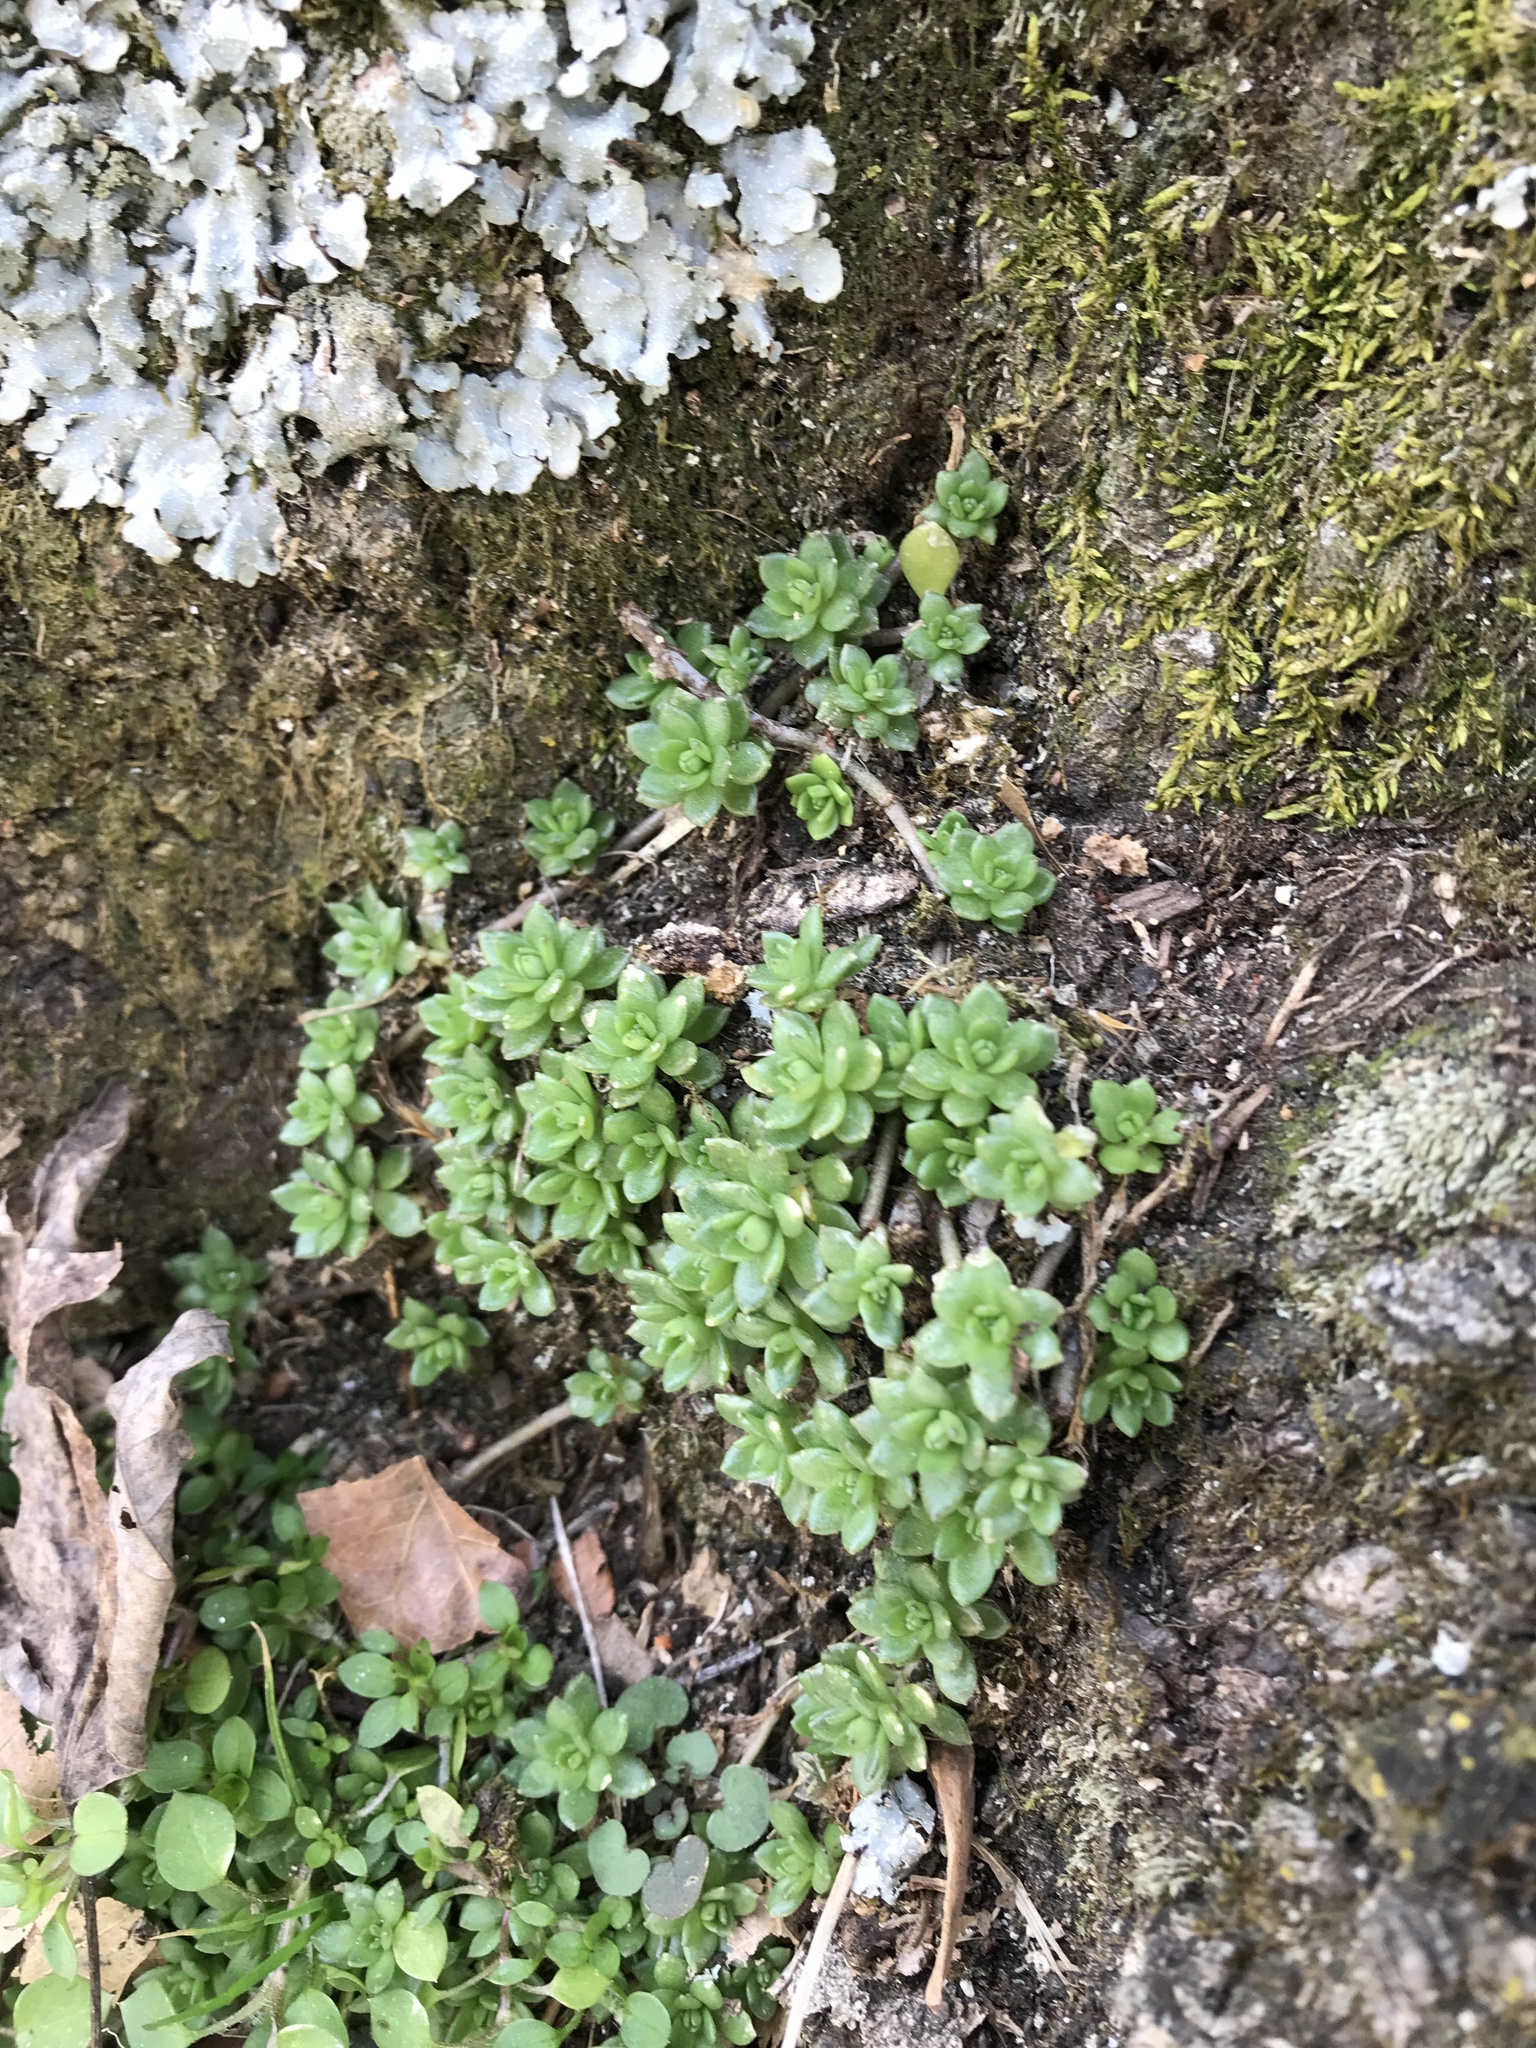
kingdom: Plantae
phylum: Tracheophyta
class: Magnoliopsida
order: Saxifragales
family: Crassulaceae
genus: Sedum
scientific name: Sedum sarmentosum
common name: Stringy stonecrop
